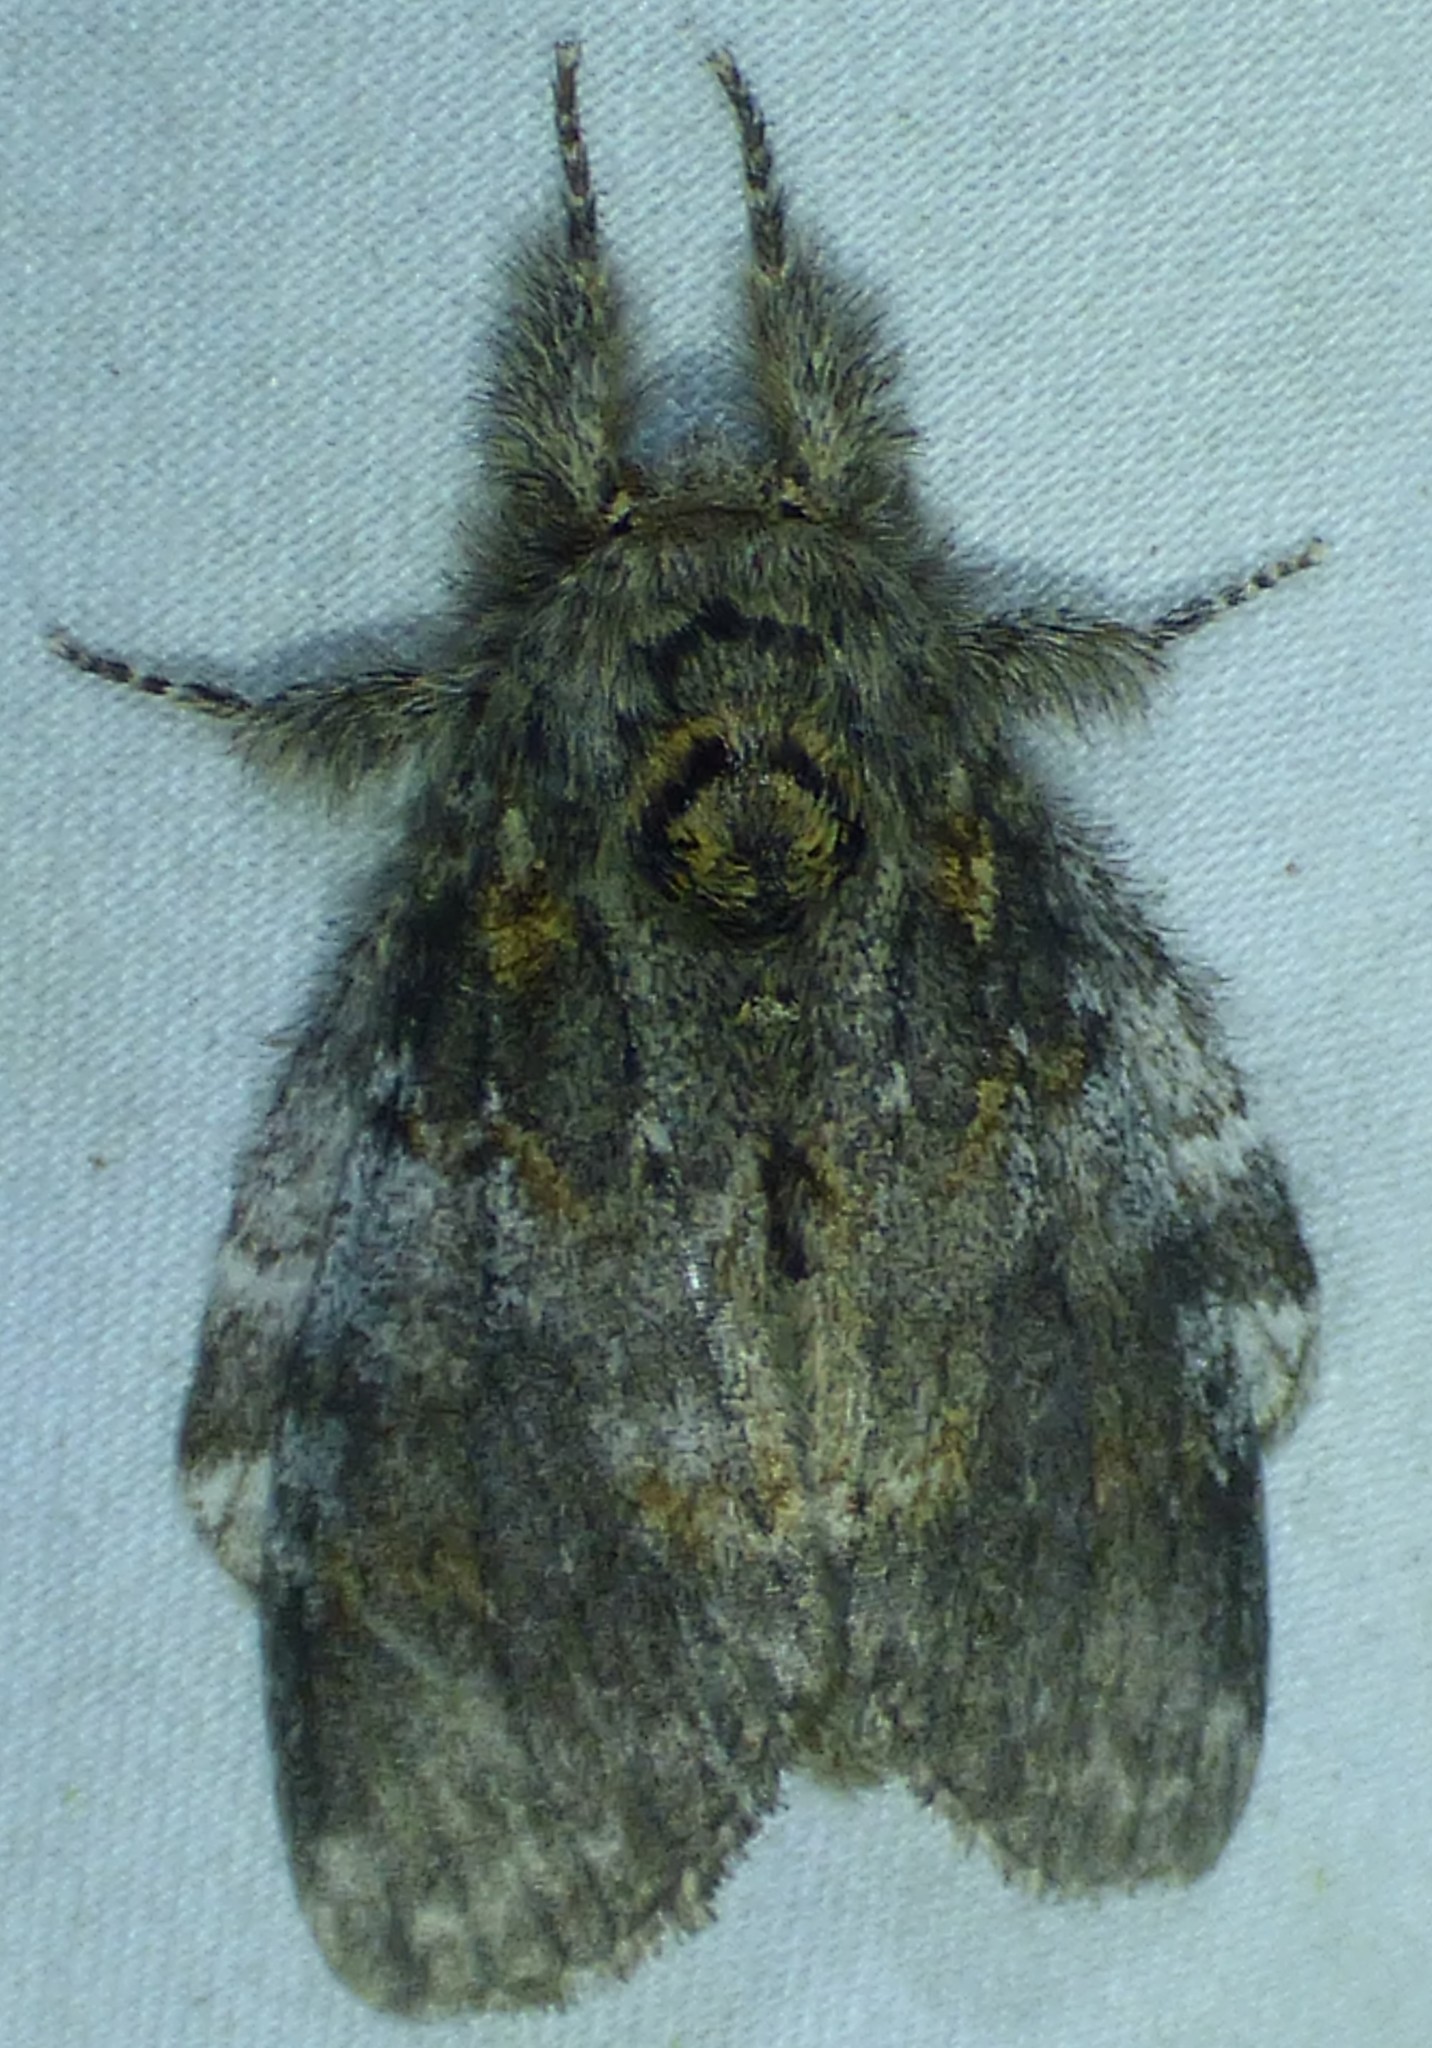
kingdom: Animalia
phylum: Arthropoda
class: Insecta
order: Lepidoptera
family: Notodontidae
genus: Peridea
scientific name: Peridea angulosa
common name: Angulose prominent
